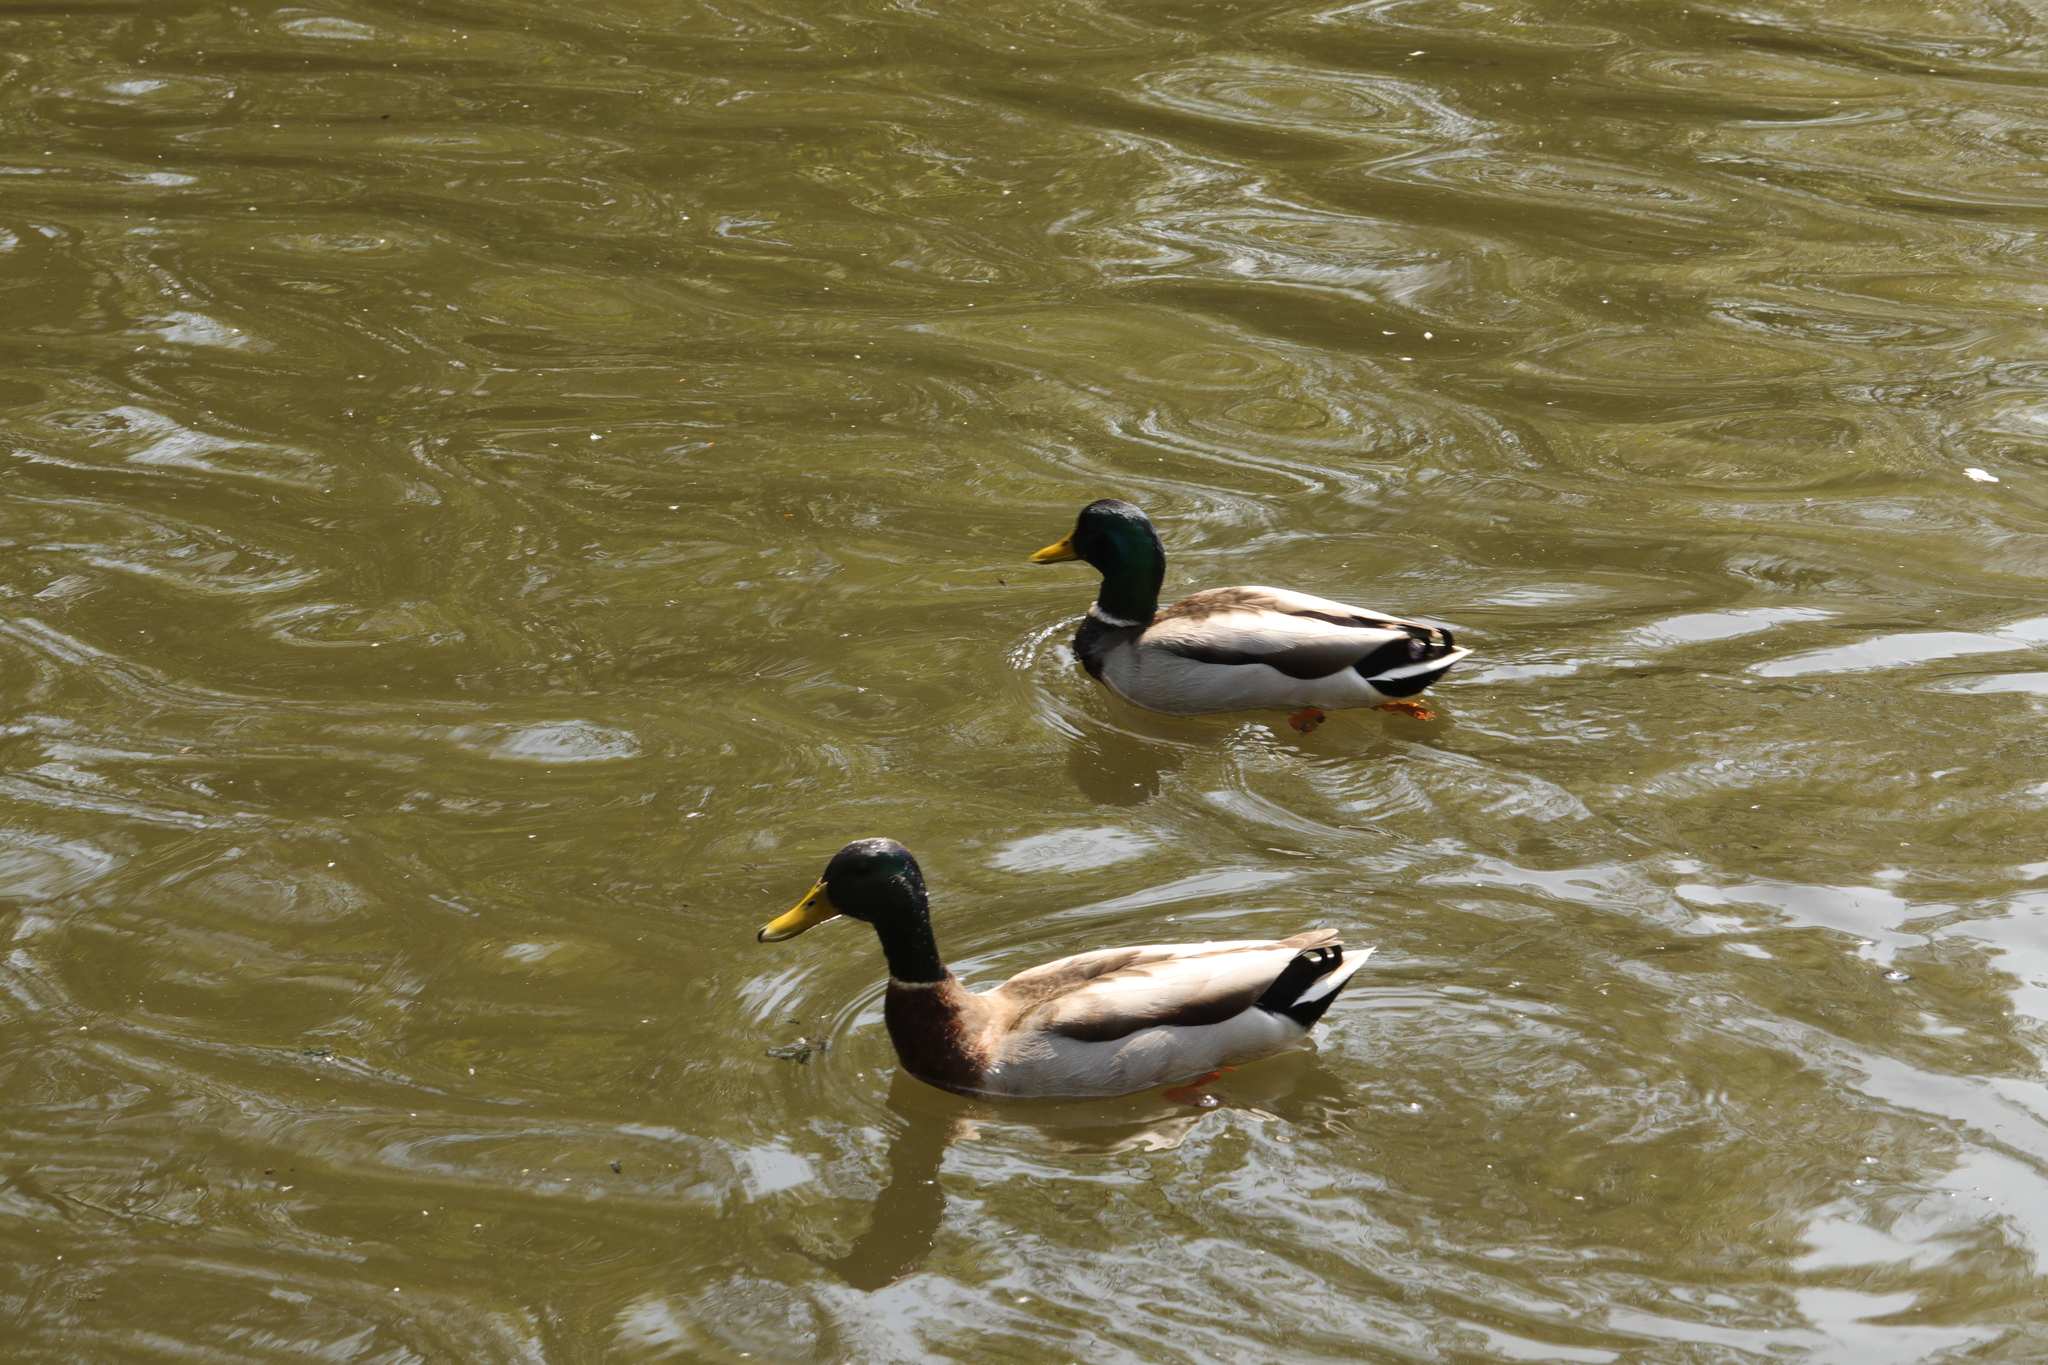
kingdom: Animalia
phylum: Chordata
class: Aves
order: Anseriformes
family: Anatidae
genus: Anas
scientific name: Anas platyrhynchos
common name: Mallard
